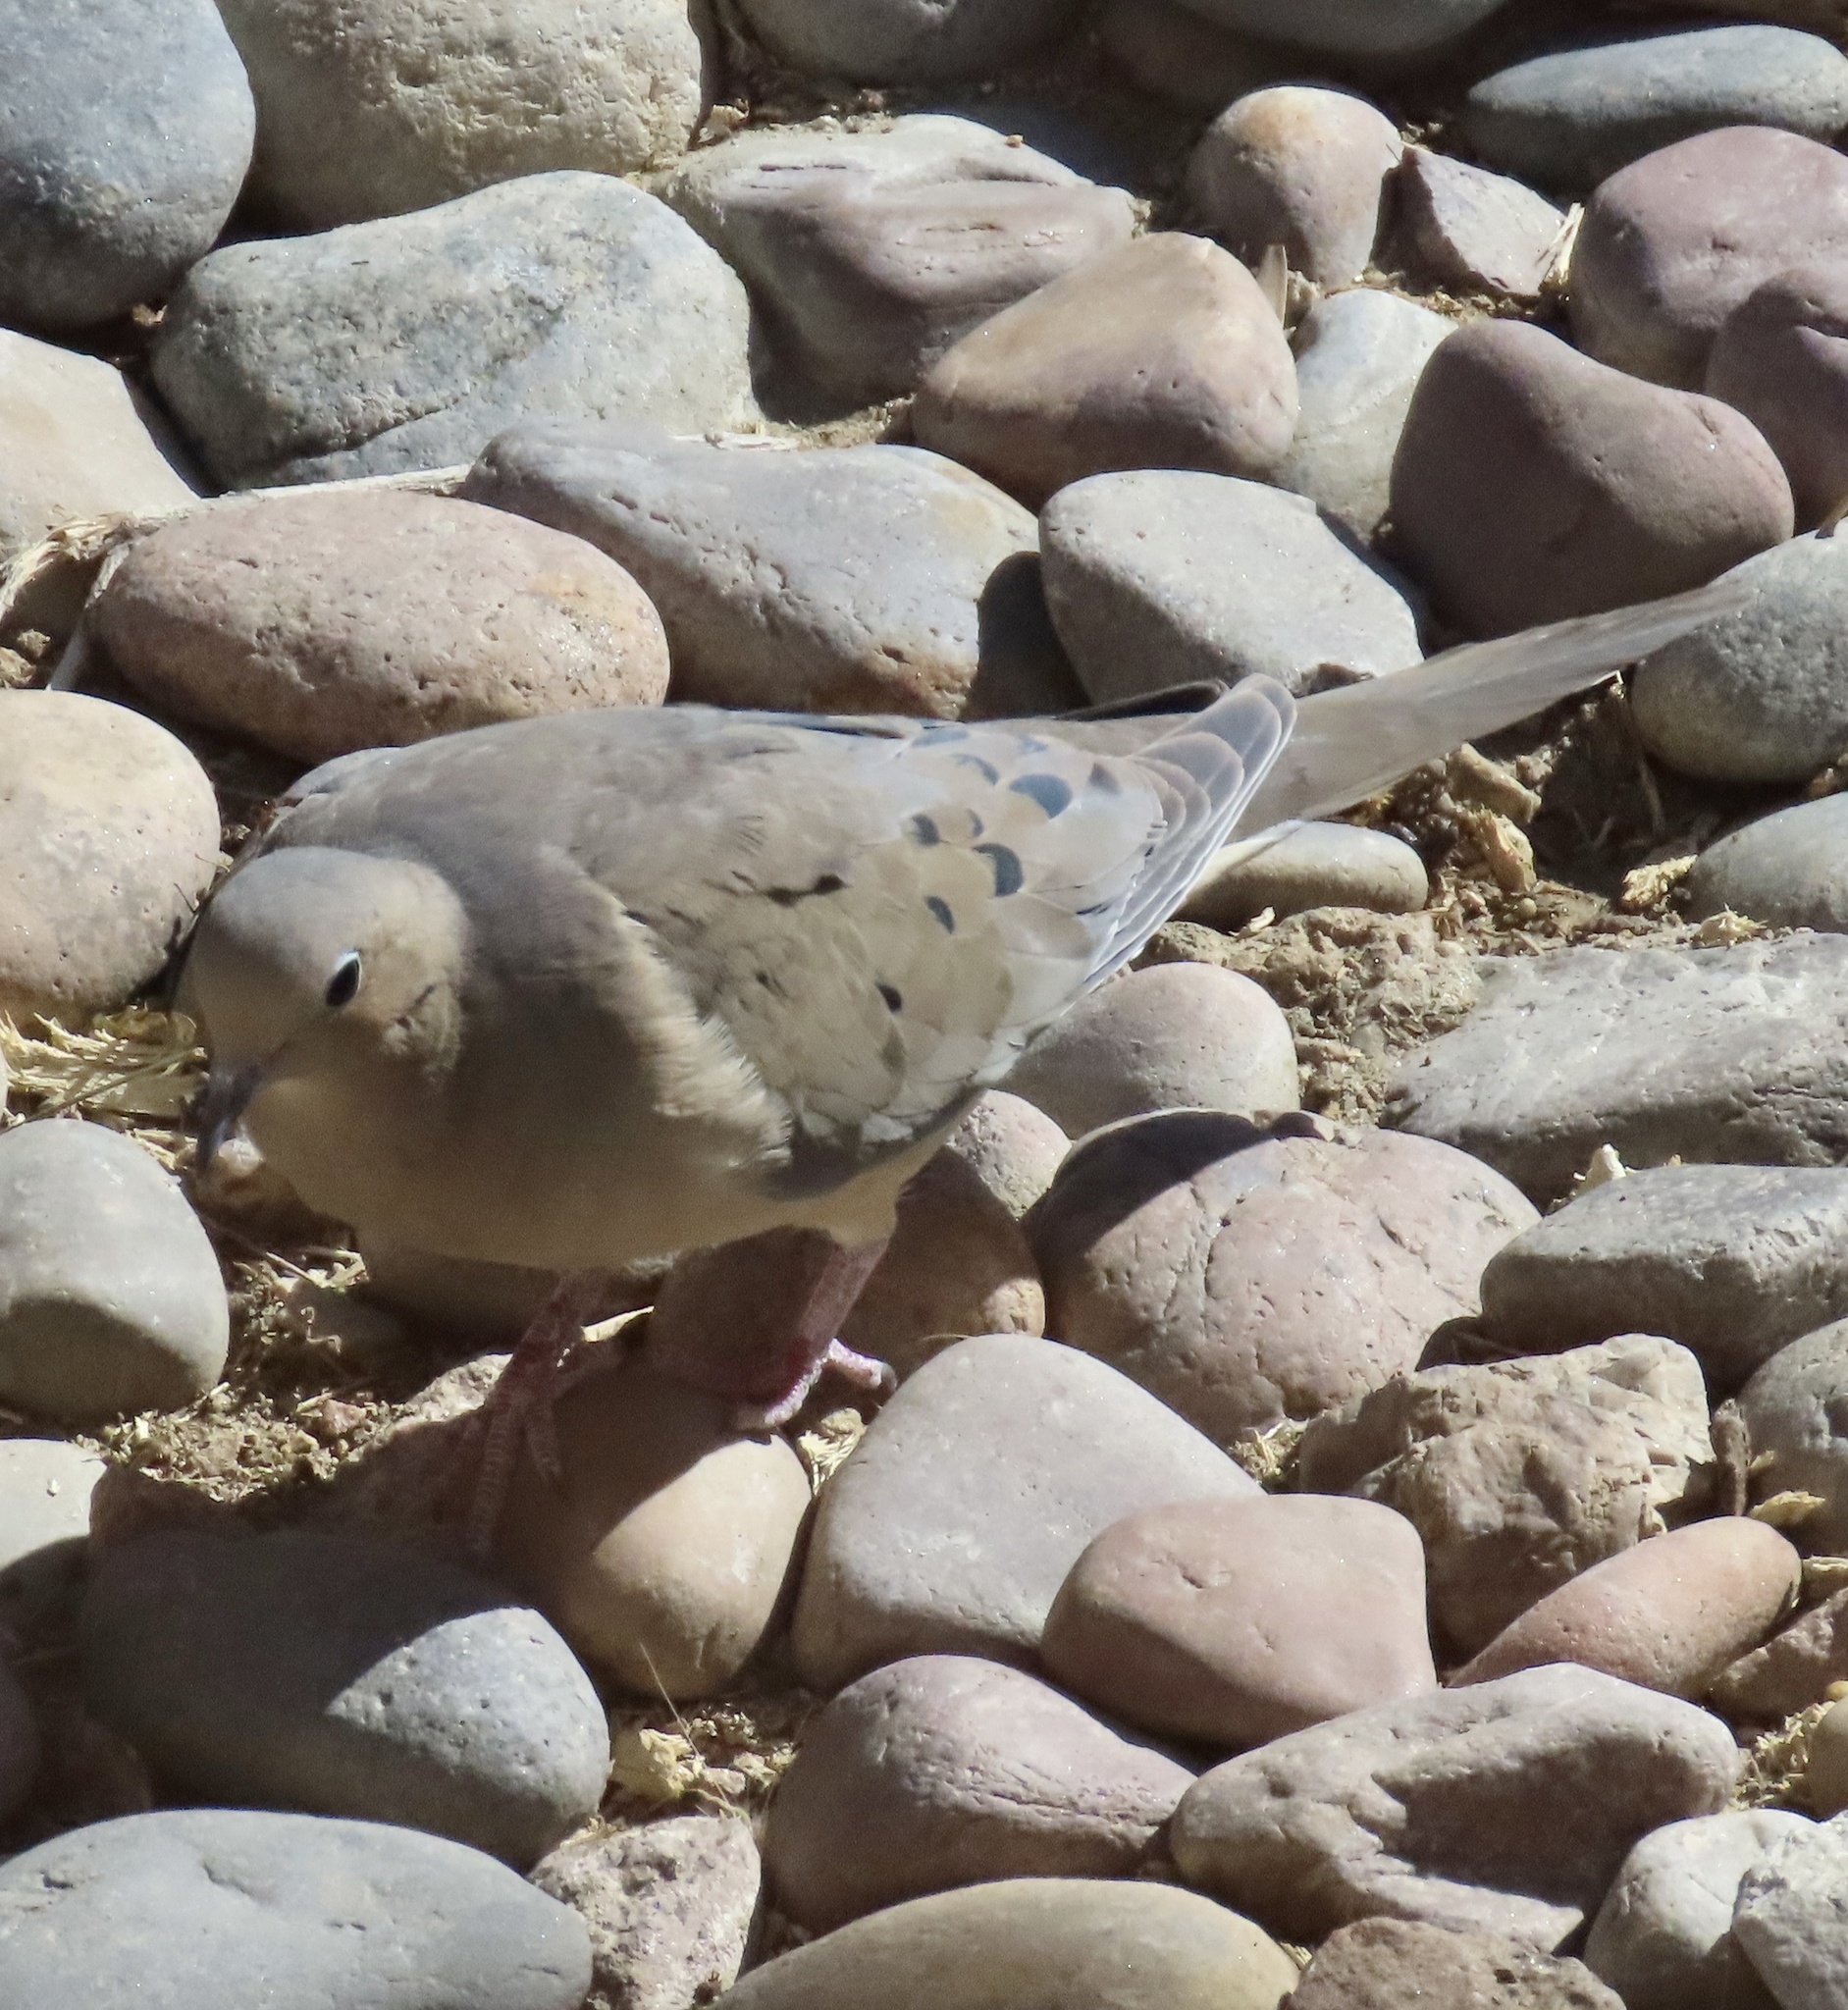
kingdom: Animalia
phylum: Chordata
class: Aves
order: Columbiformes
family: Columbidae
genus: Zenaida
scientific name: Zenaida macroura
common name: Mourning dove
